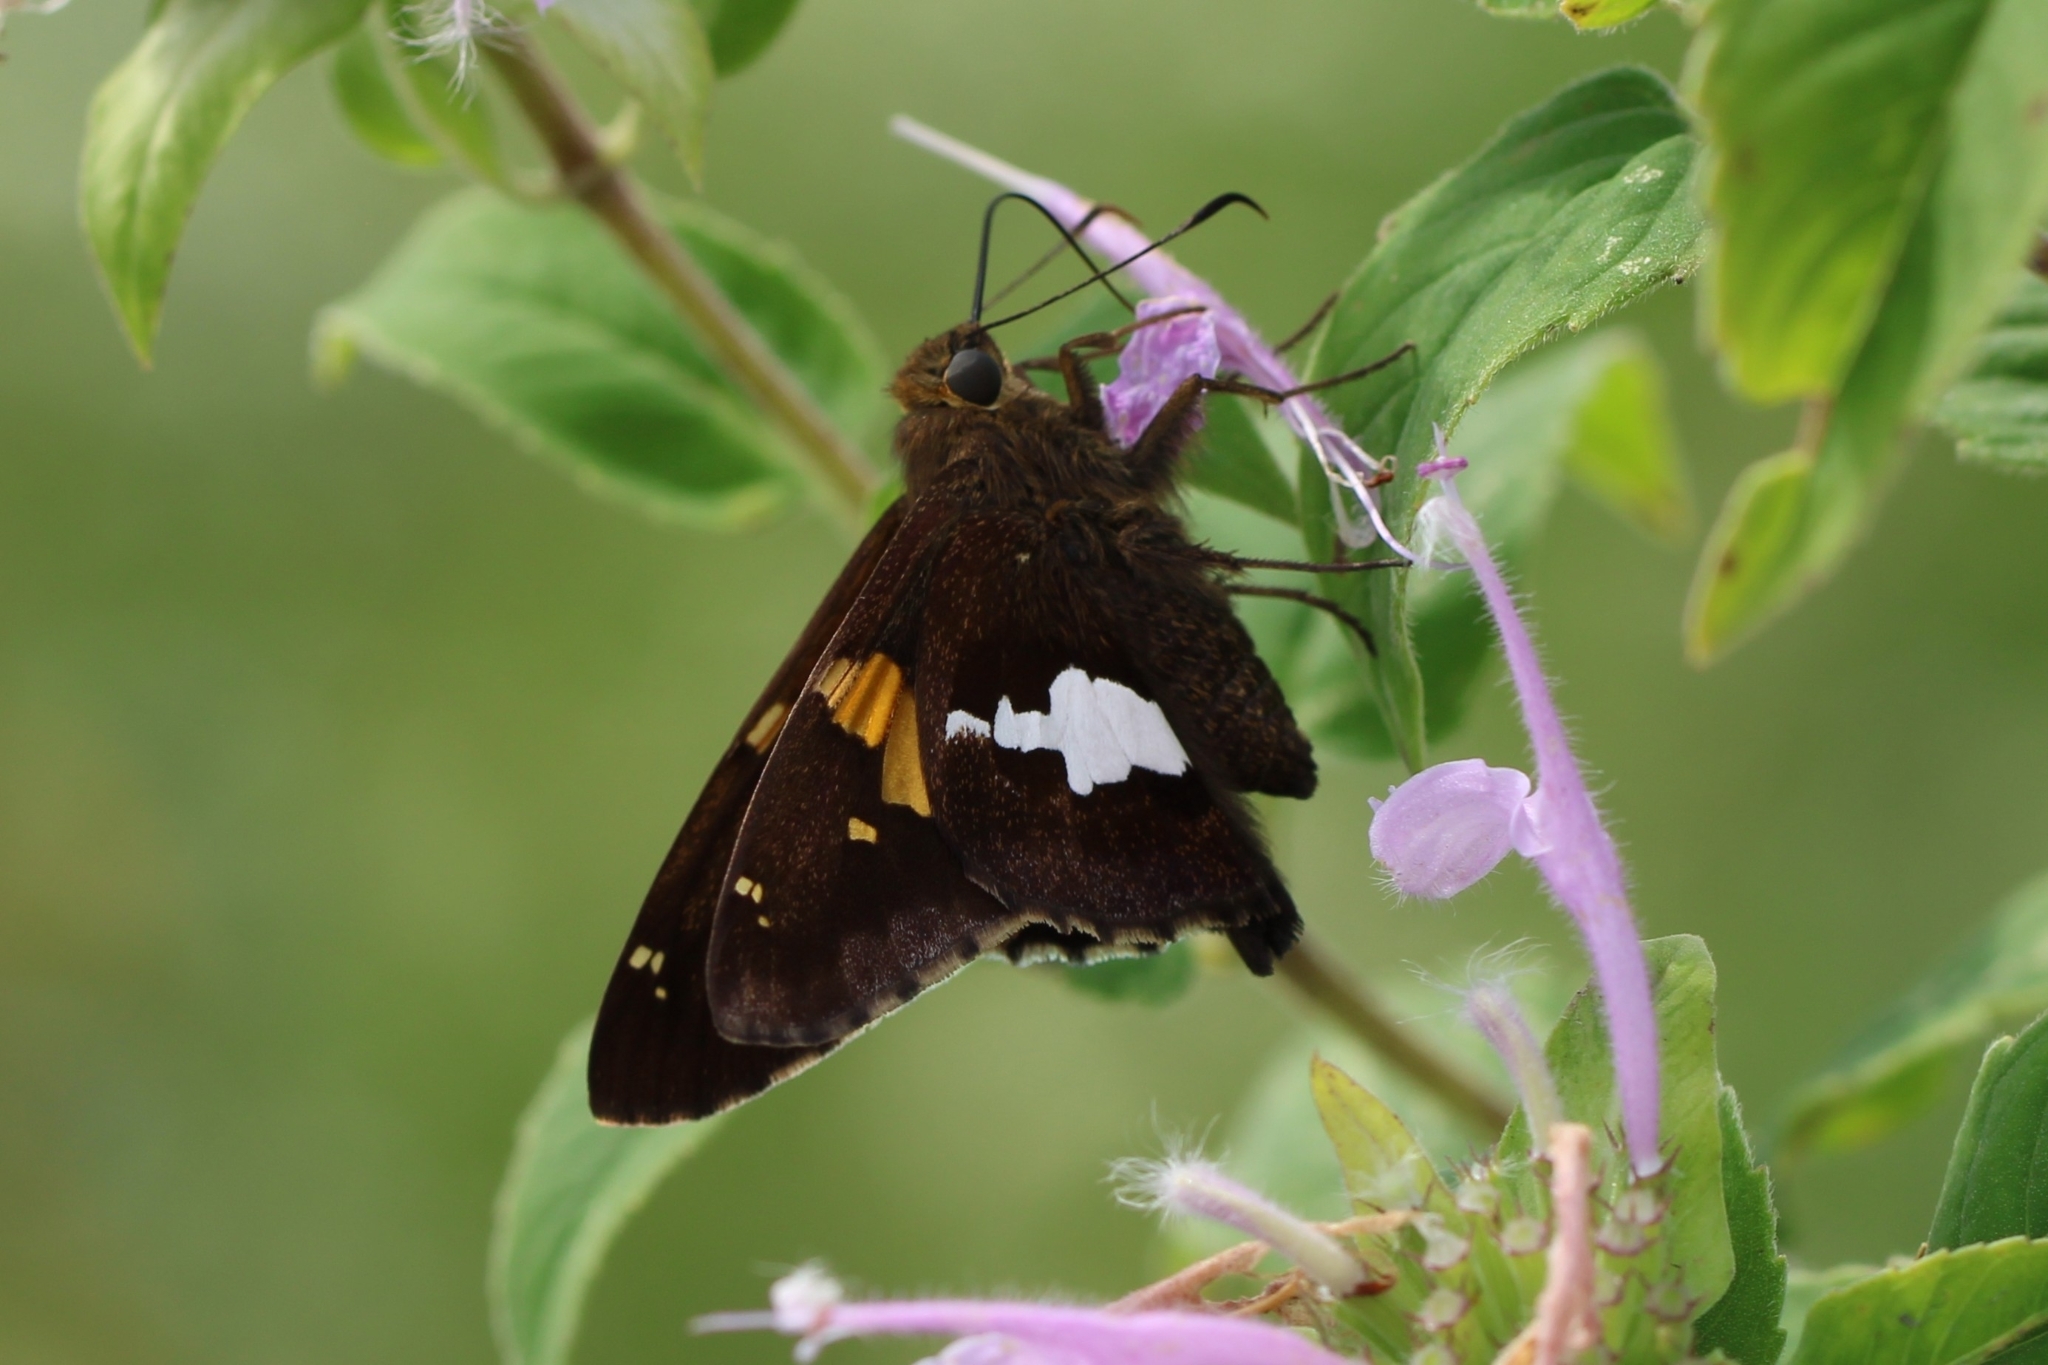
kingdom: Animalia
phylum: Arthropoda
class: Insecta
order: Lepidoptera
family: Hesperiidae
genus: Epargyreus
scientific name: Epargyreus clarus
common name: Silver-spotted skipper
